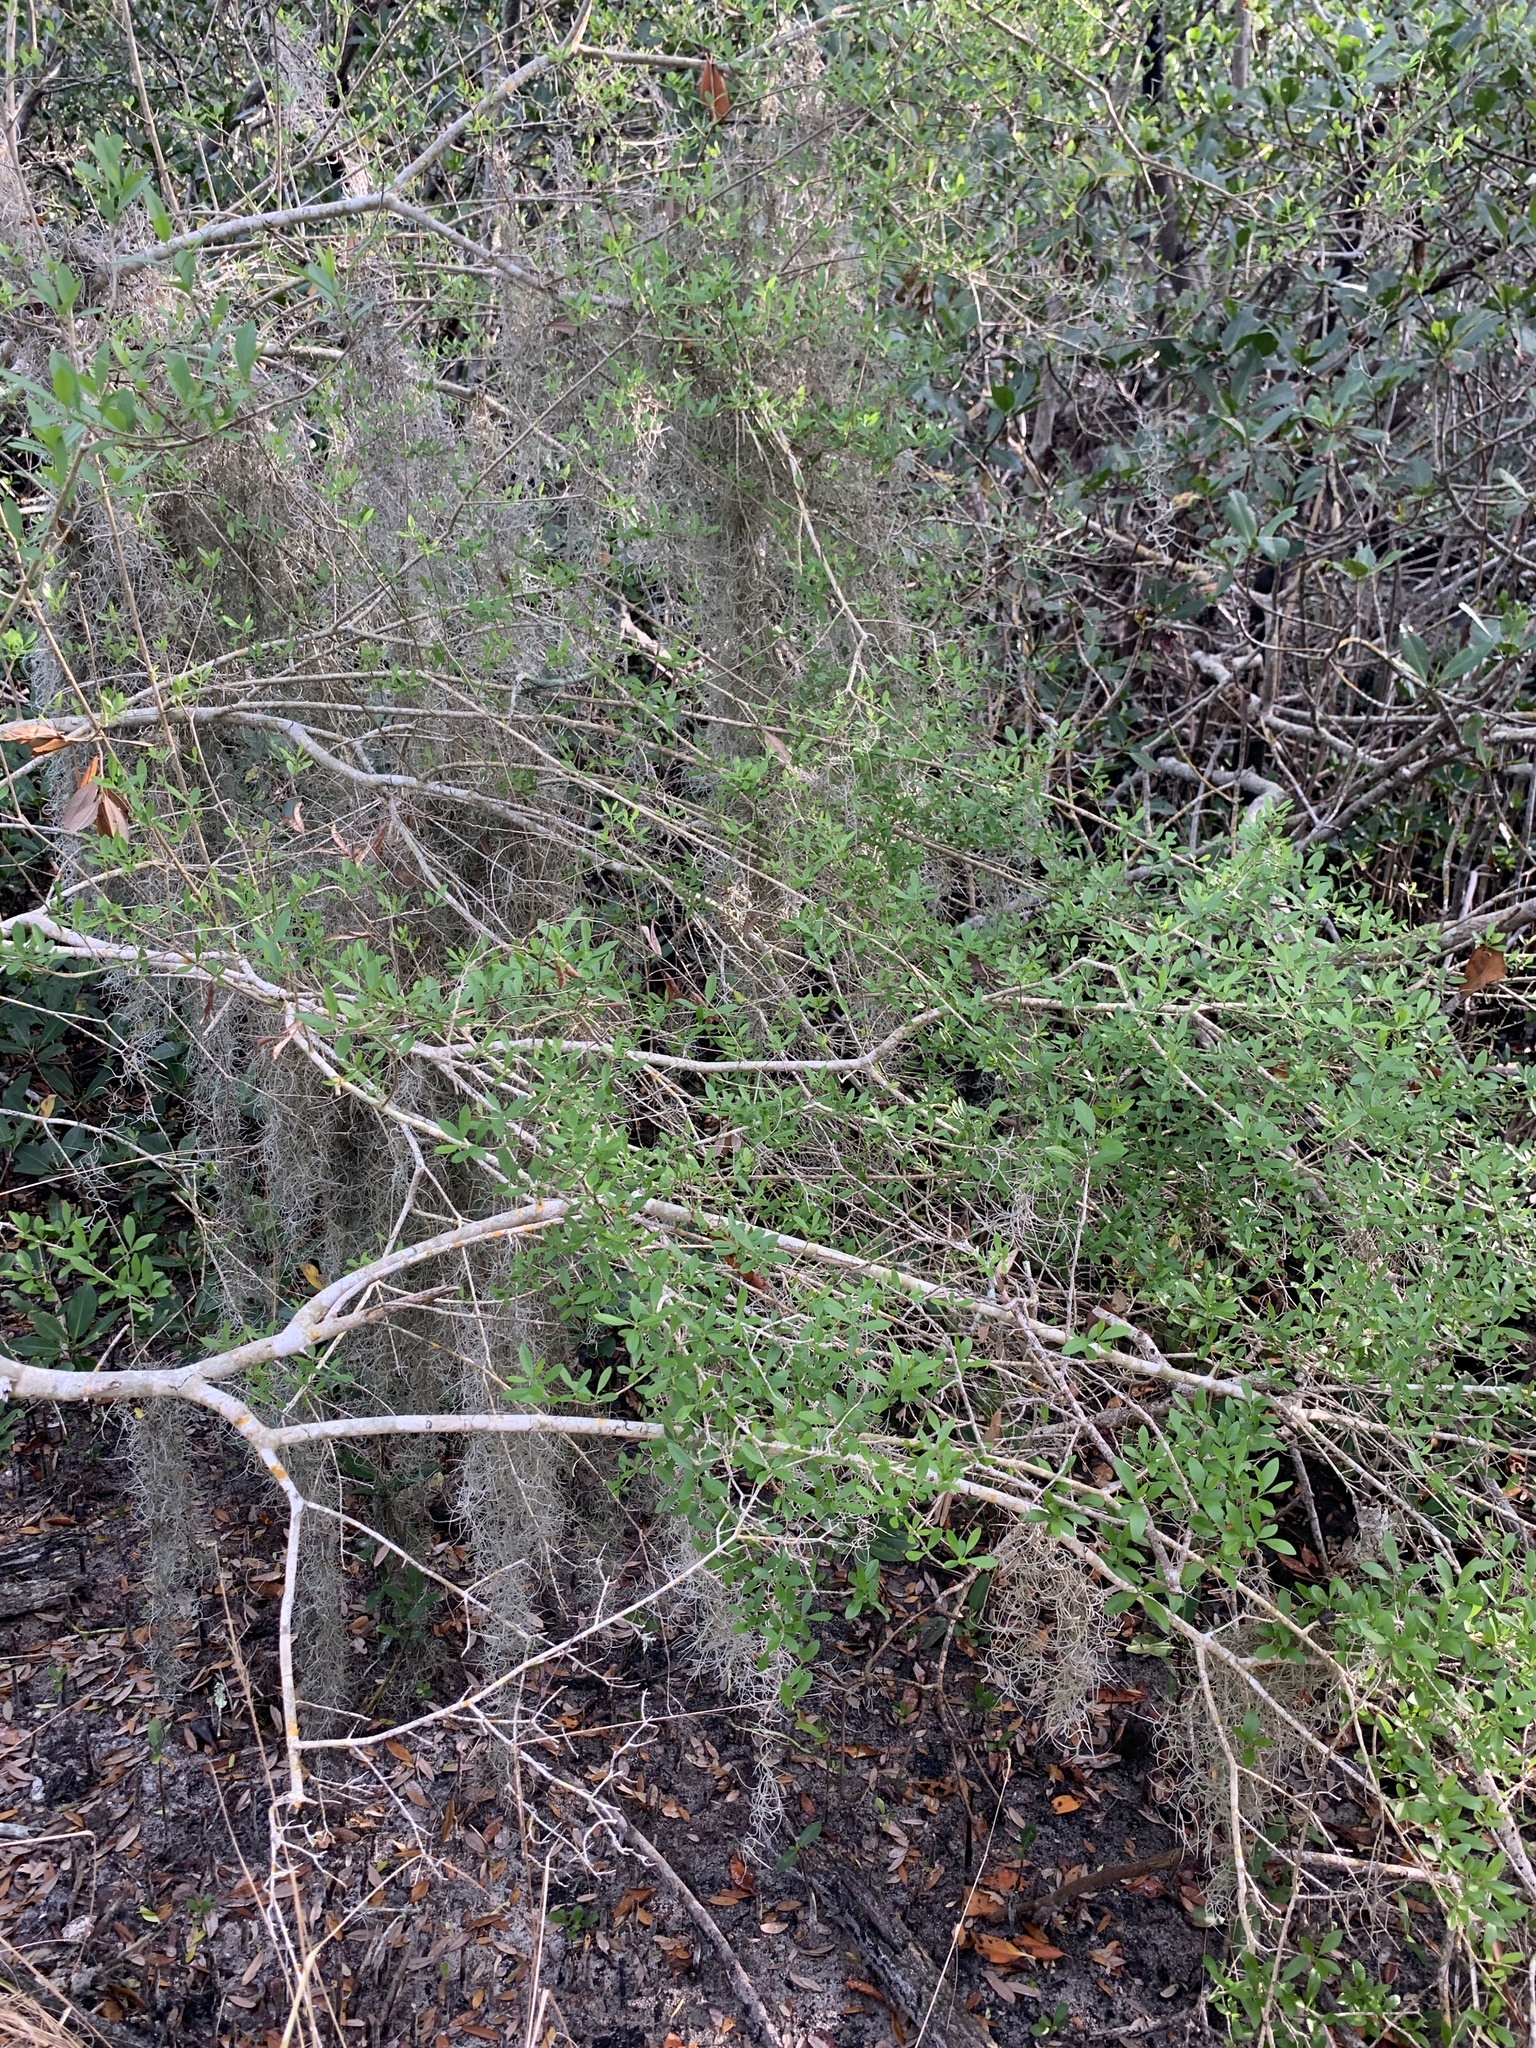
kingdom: Plantae
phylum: Tracheophyta
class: Magnoliopsida
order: Lamiales
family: Oleaceae
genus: Forestiera
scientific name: Forestiera segregata
